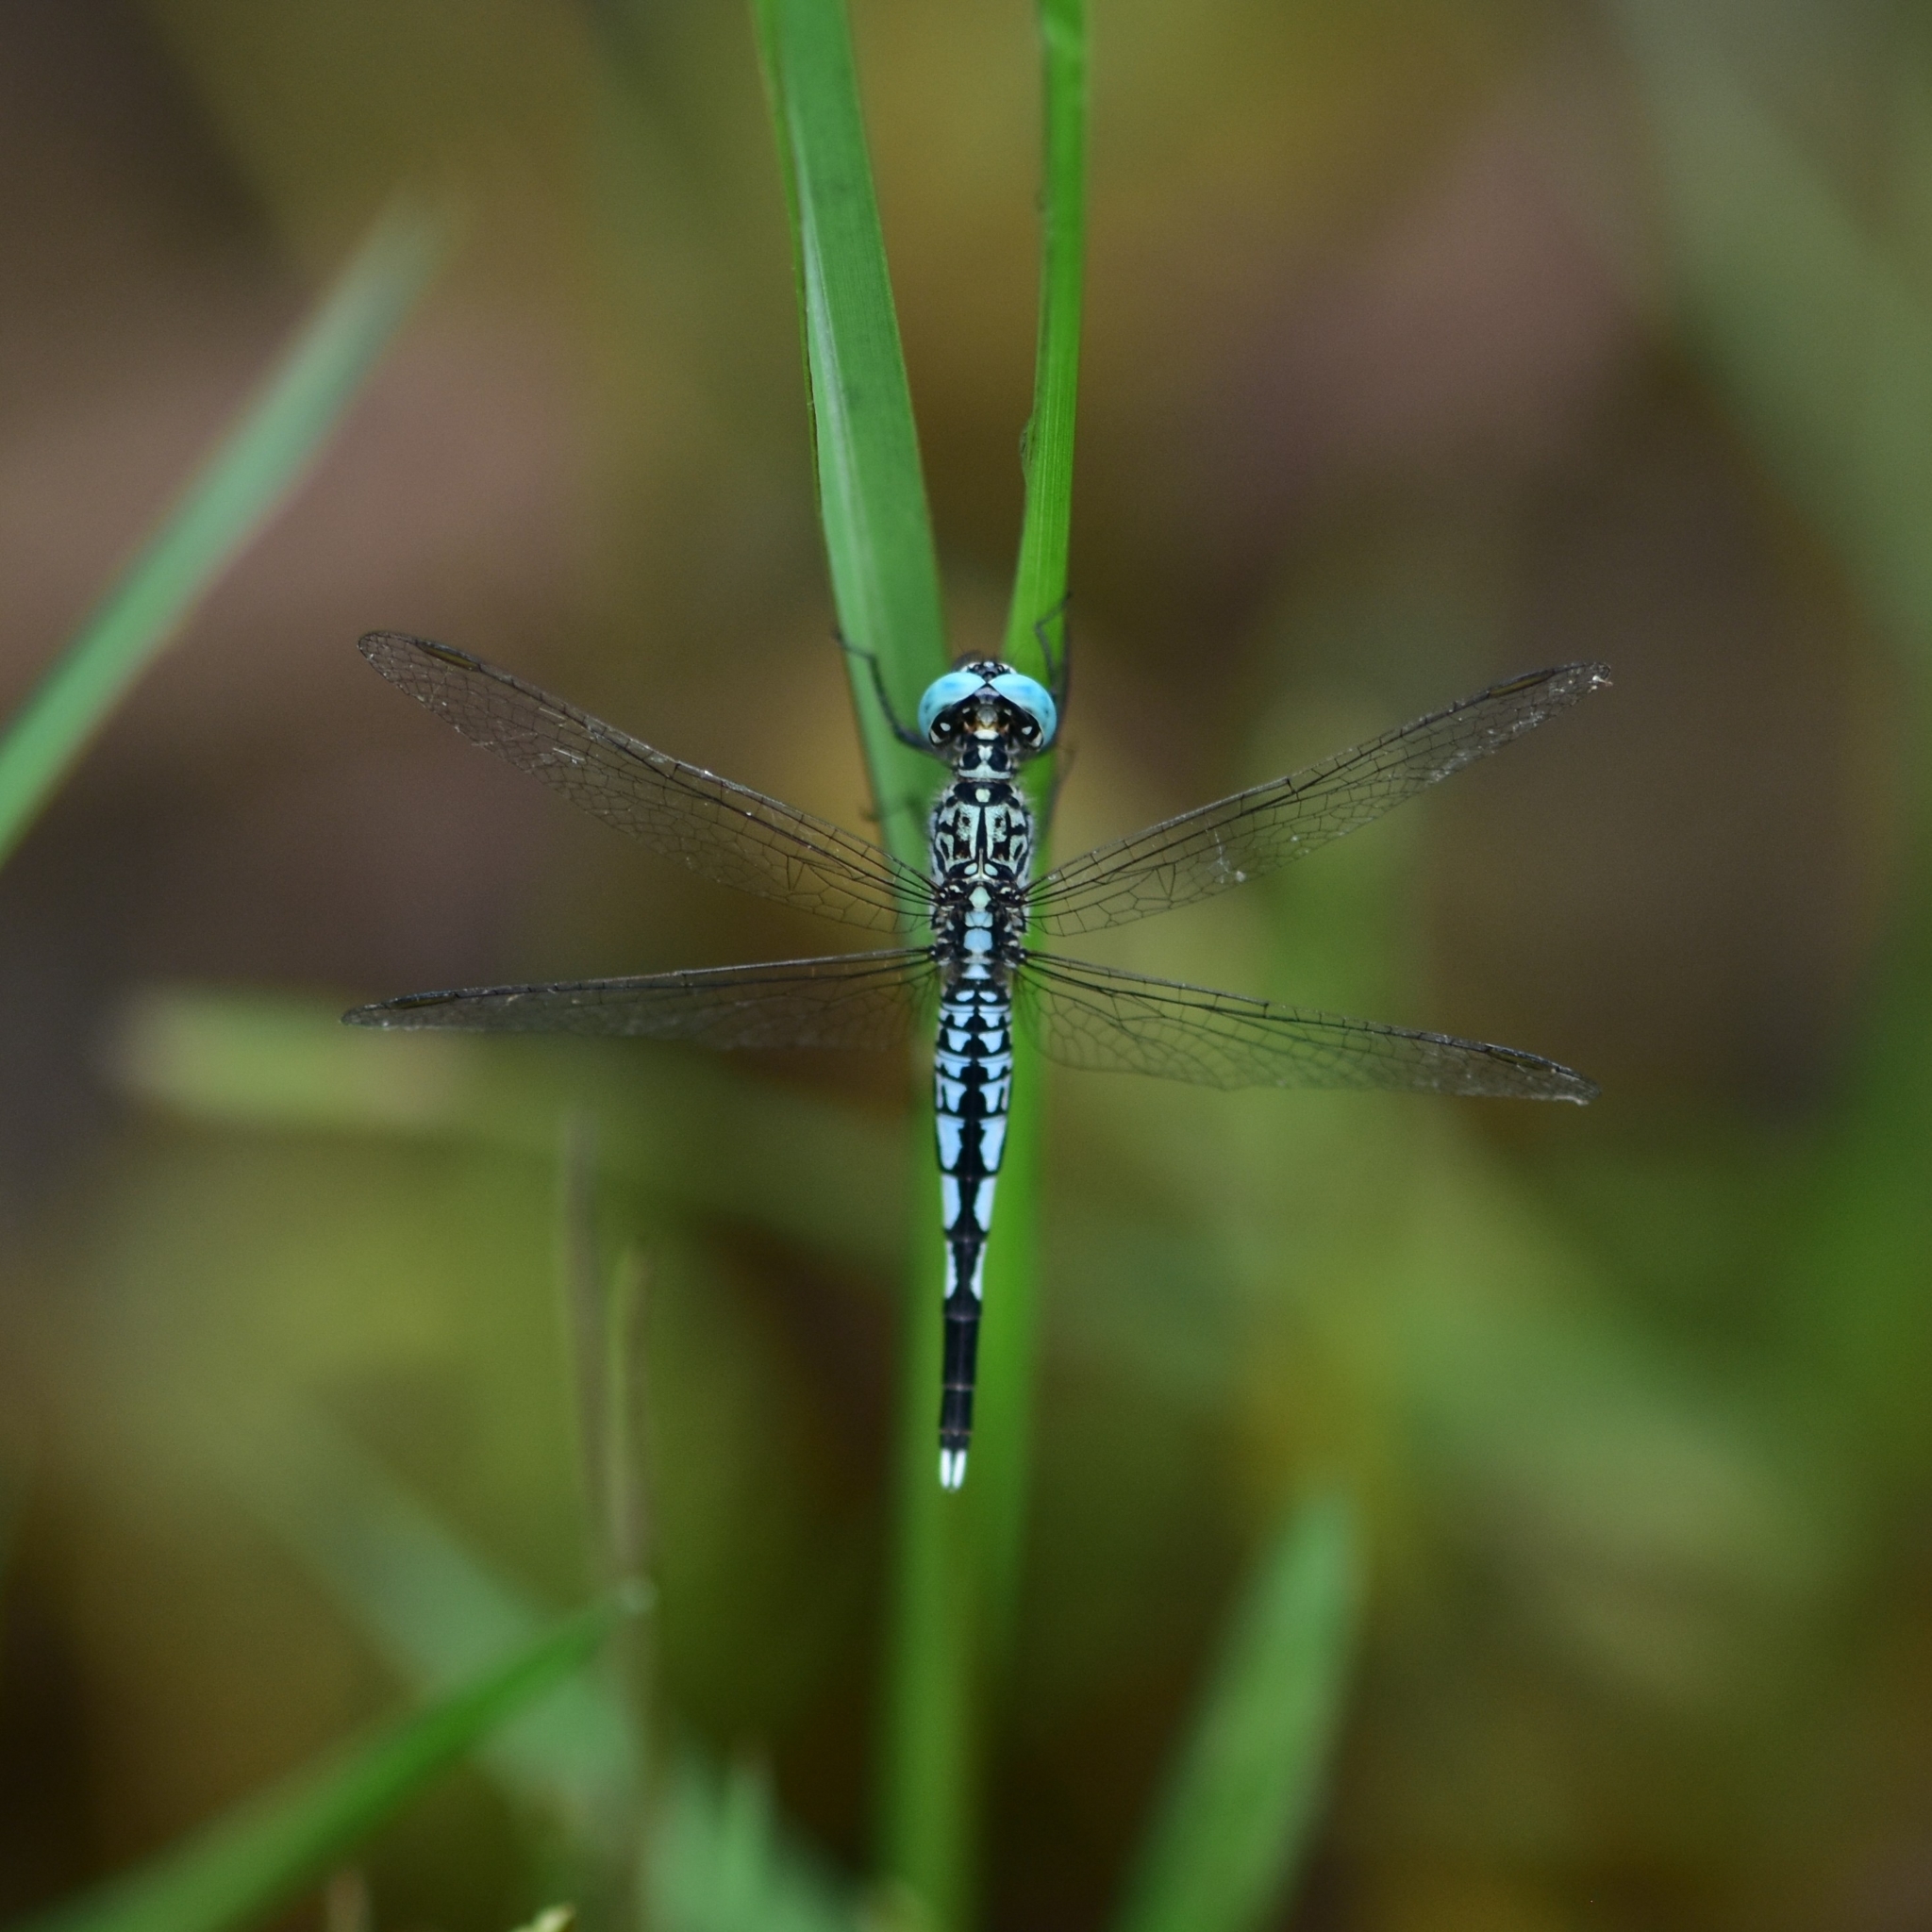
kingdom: Animalia
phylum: Arthropoda
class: Insecta
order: Odonata
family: Libellulidae
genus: Acisoma
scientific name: Acisoma panorpoides
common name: Asian pintail
